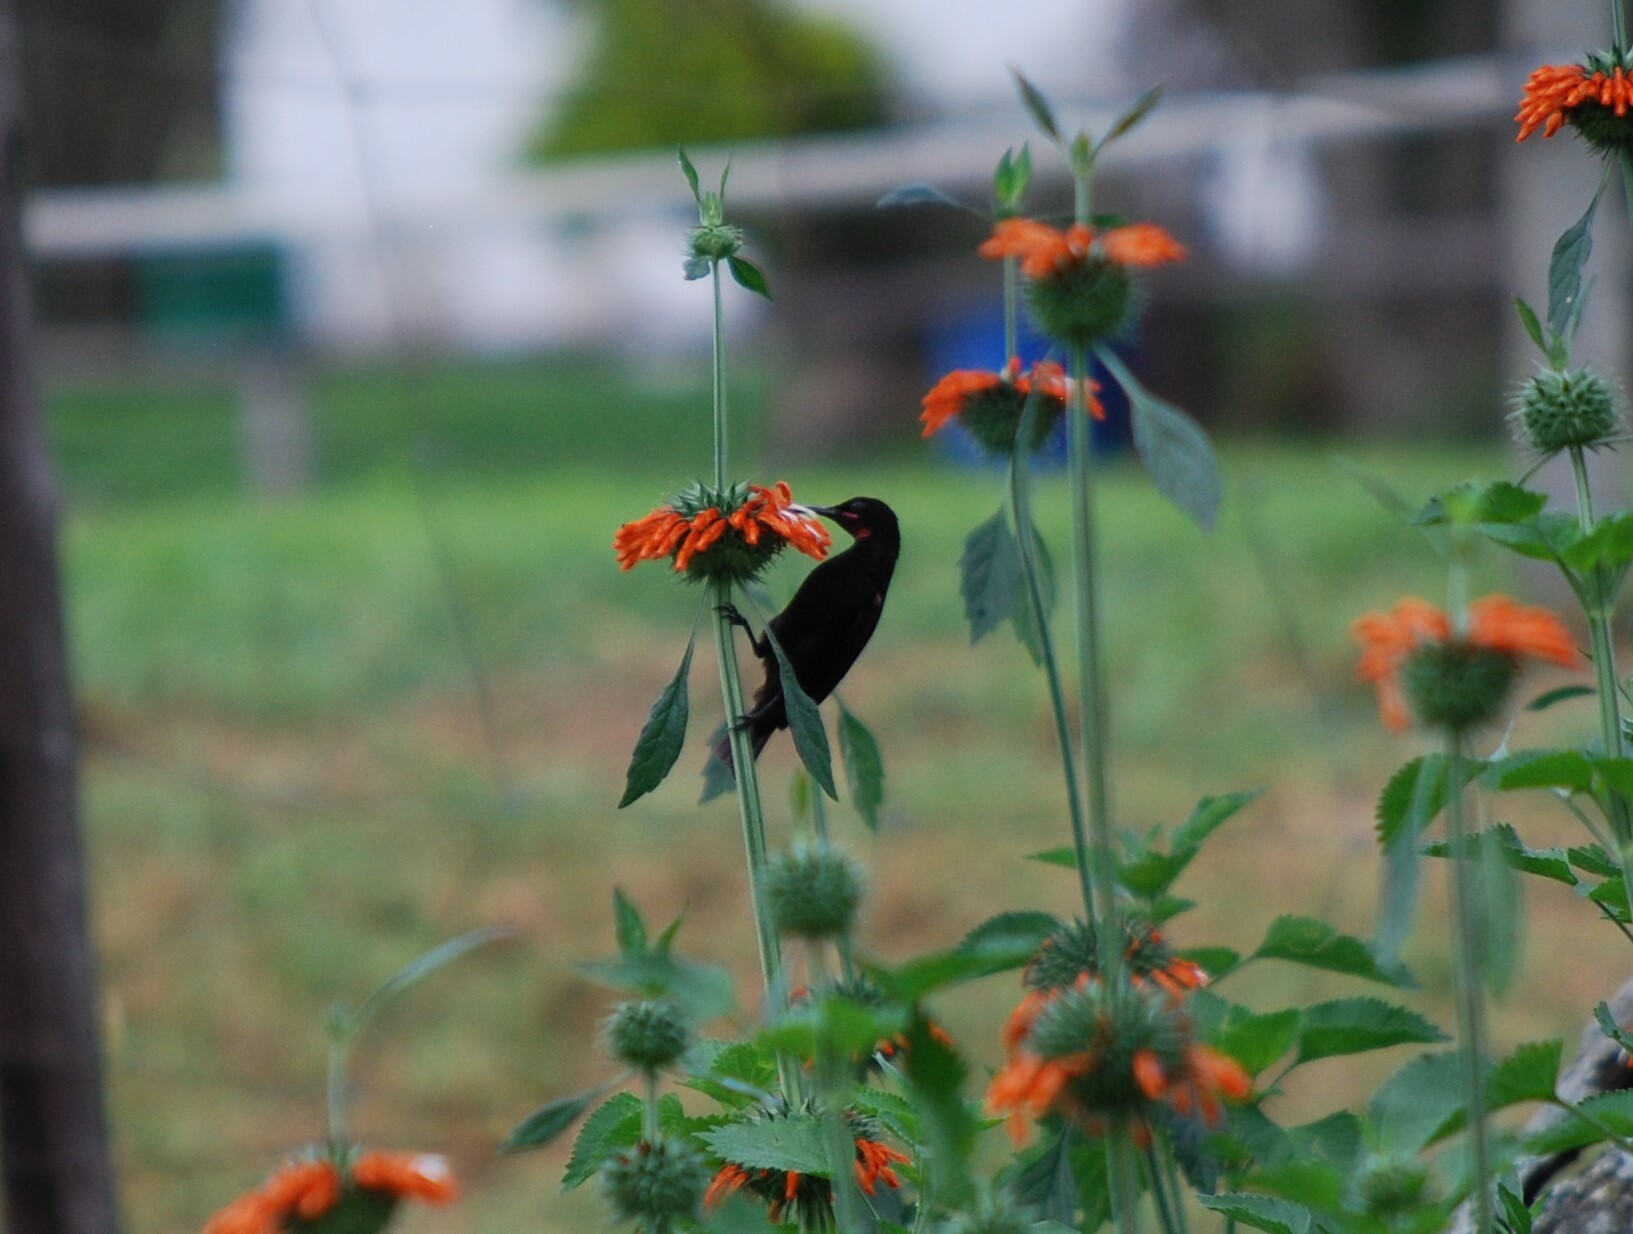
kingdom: Animalia
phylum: Chordata
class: Aves
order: Passeriformes
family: Nectariniidae
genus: Chalcomitra
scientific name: Chalcomitra amethystina
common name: Amethyst sunbird
